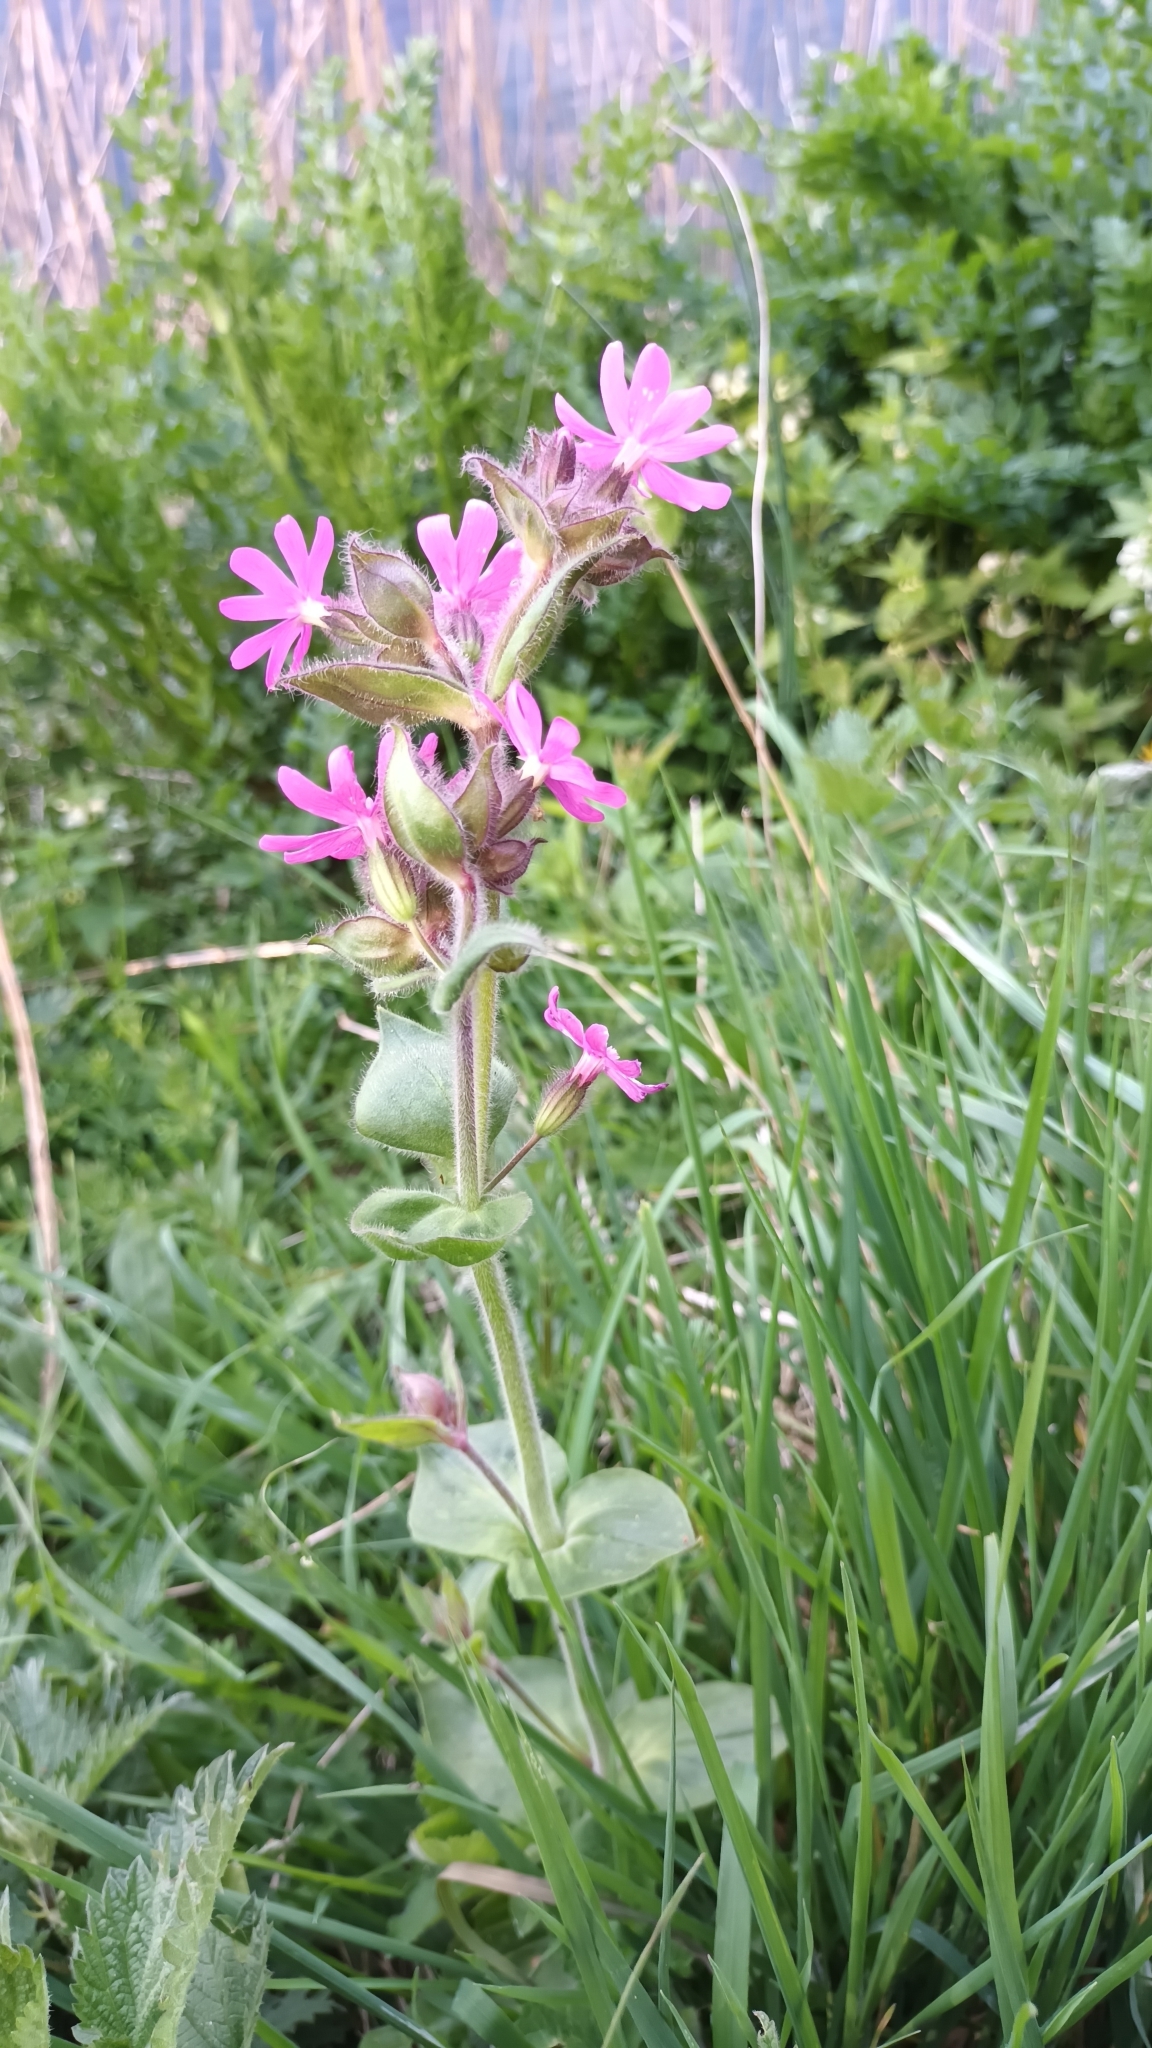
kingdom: Plantae
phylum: Tracheophyta
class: Magnoliopsida
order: Caryophyllales
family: Caryophyllaceae
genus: Silene
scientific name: Silene dioica
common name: Red campion
